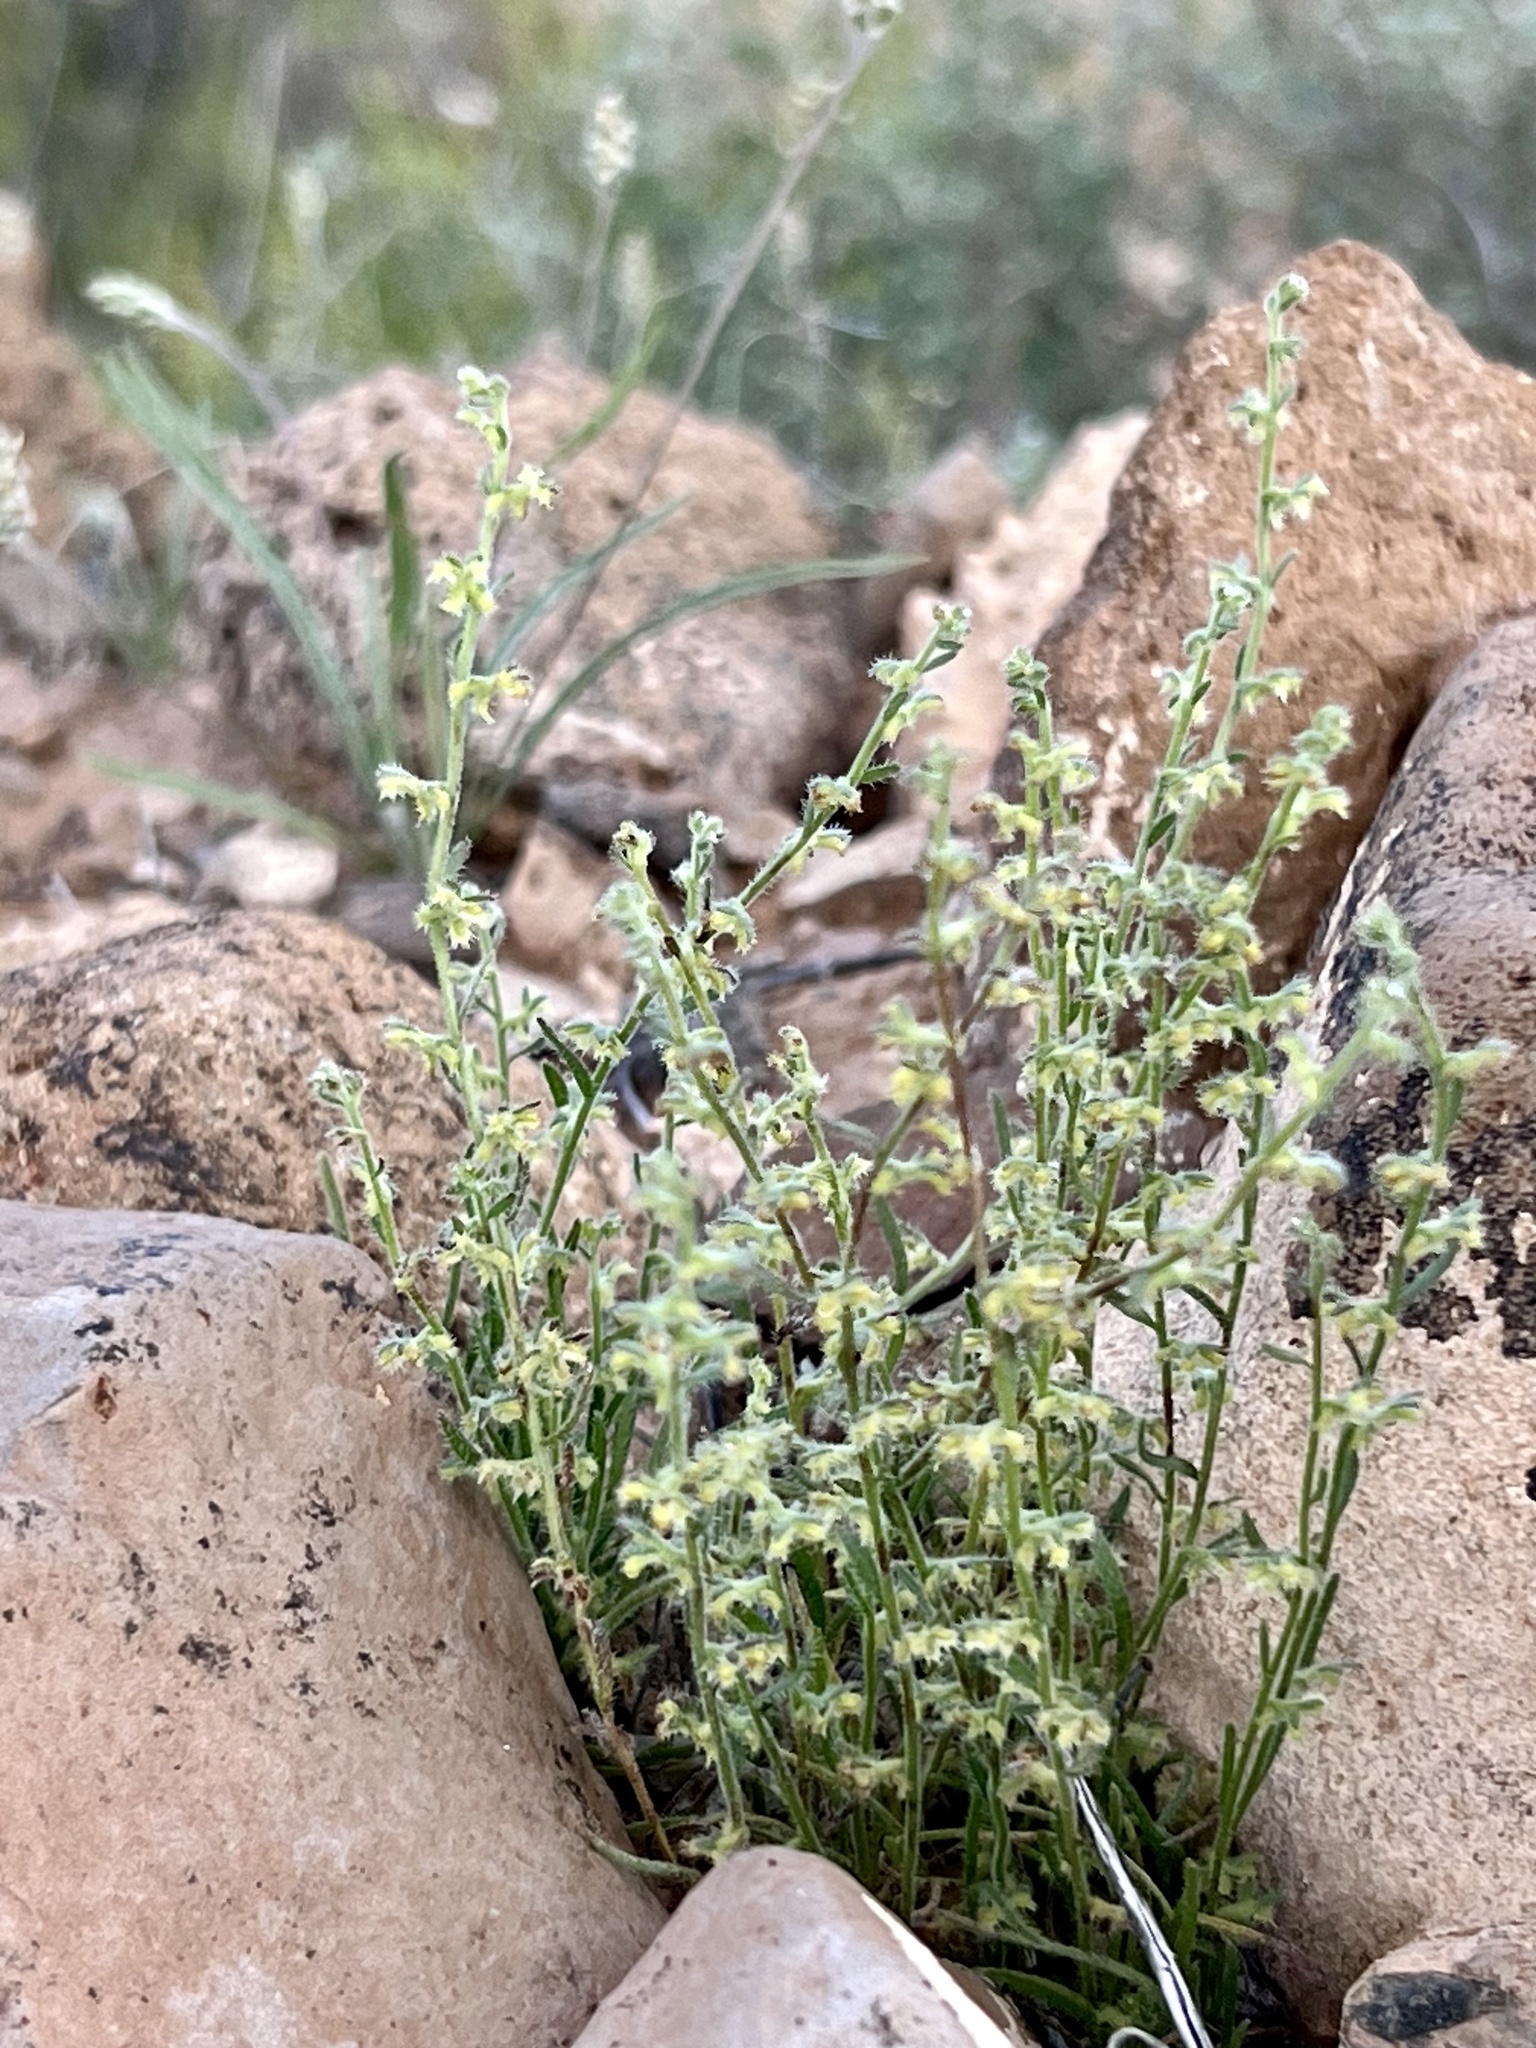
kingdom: Plantae
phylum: Tracheophyta
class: Magnoliopsida
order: Boraginales
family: Boraginaceae
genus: Pectocarya
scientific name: Pectocarya recurvata
